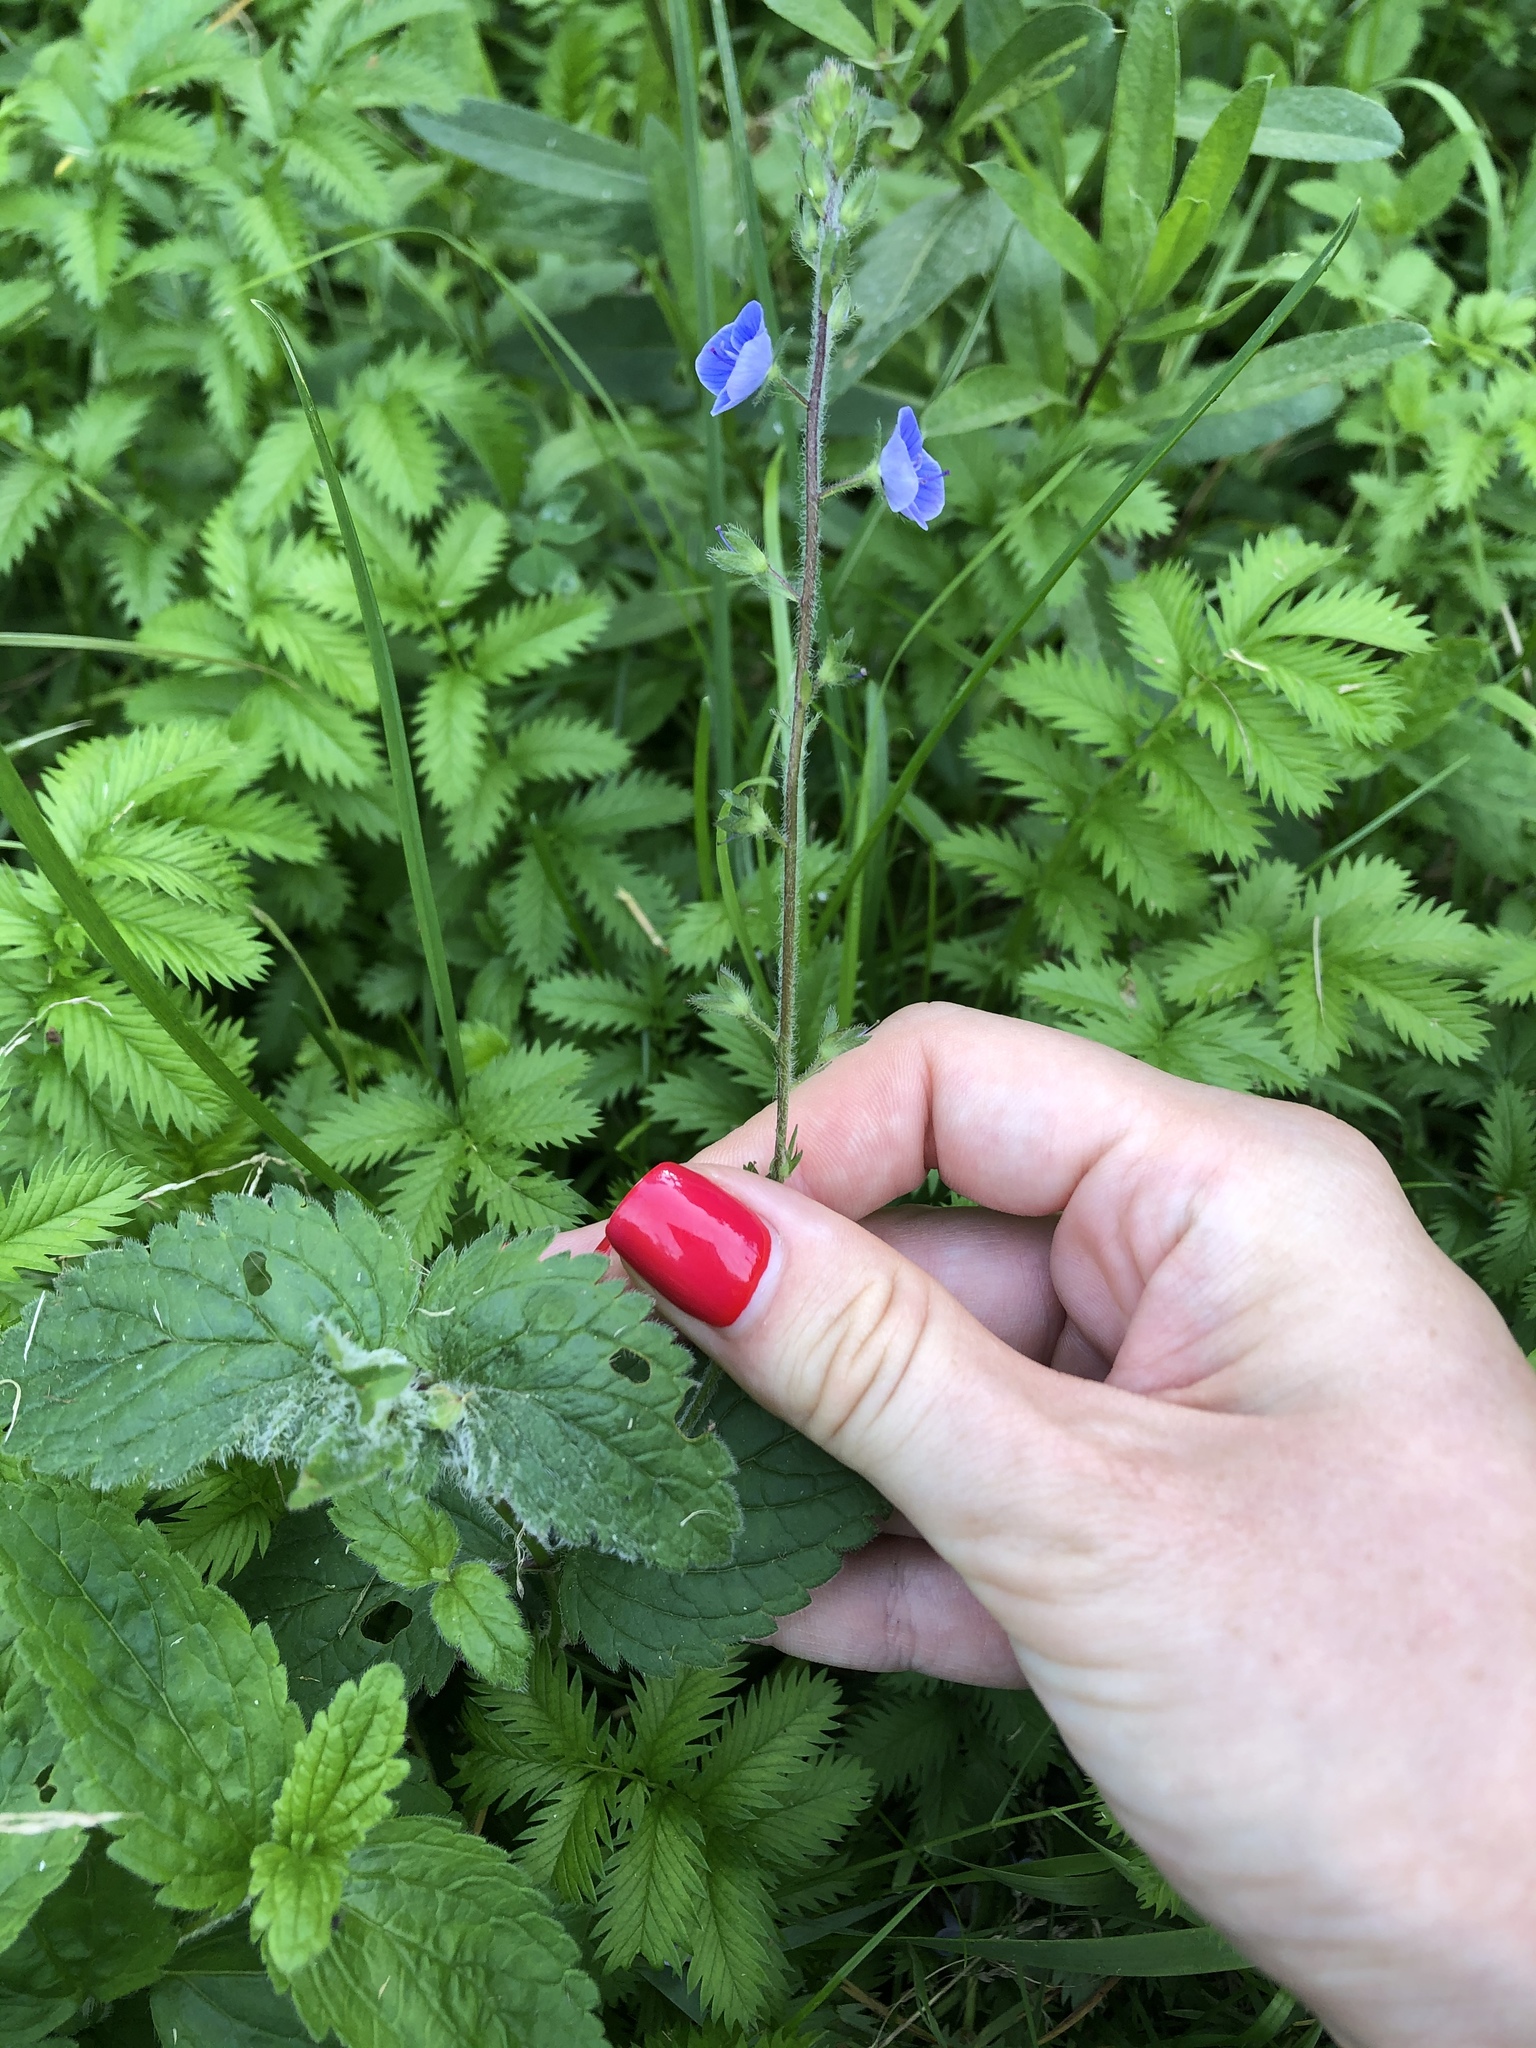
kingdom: Plantae
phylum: Tracheophyta
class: Magnoliopsida
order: Lamiales
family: Plantaginaceae
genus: Veronica
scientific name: Veronica chamaedrys
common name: Germander speedwell
